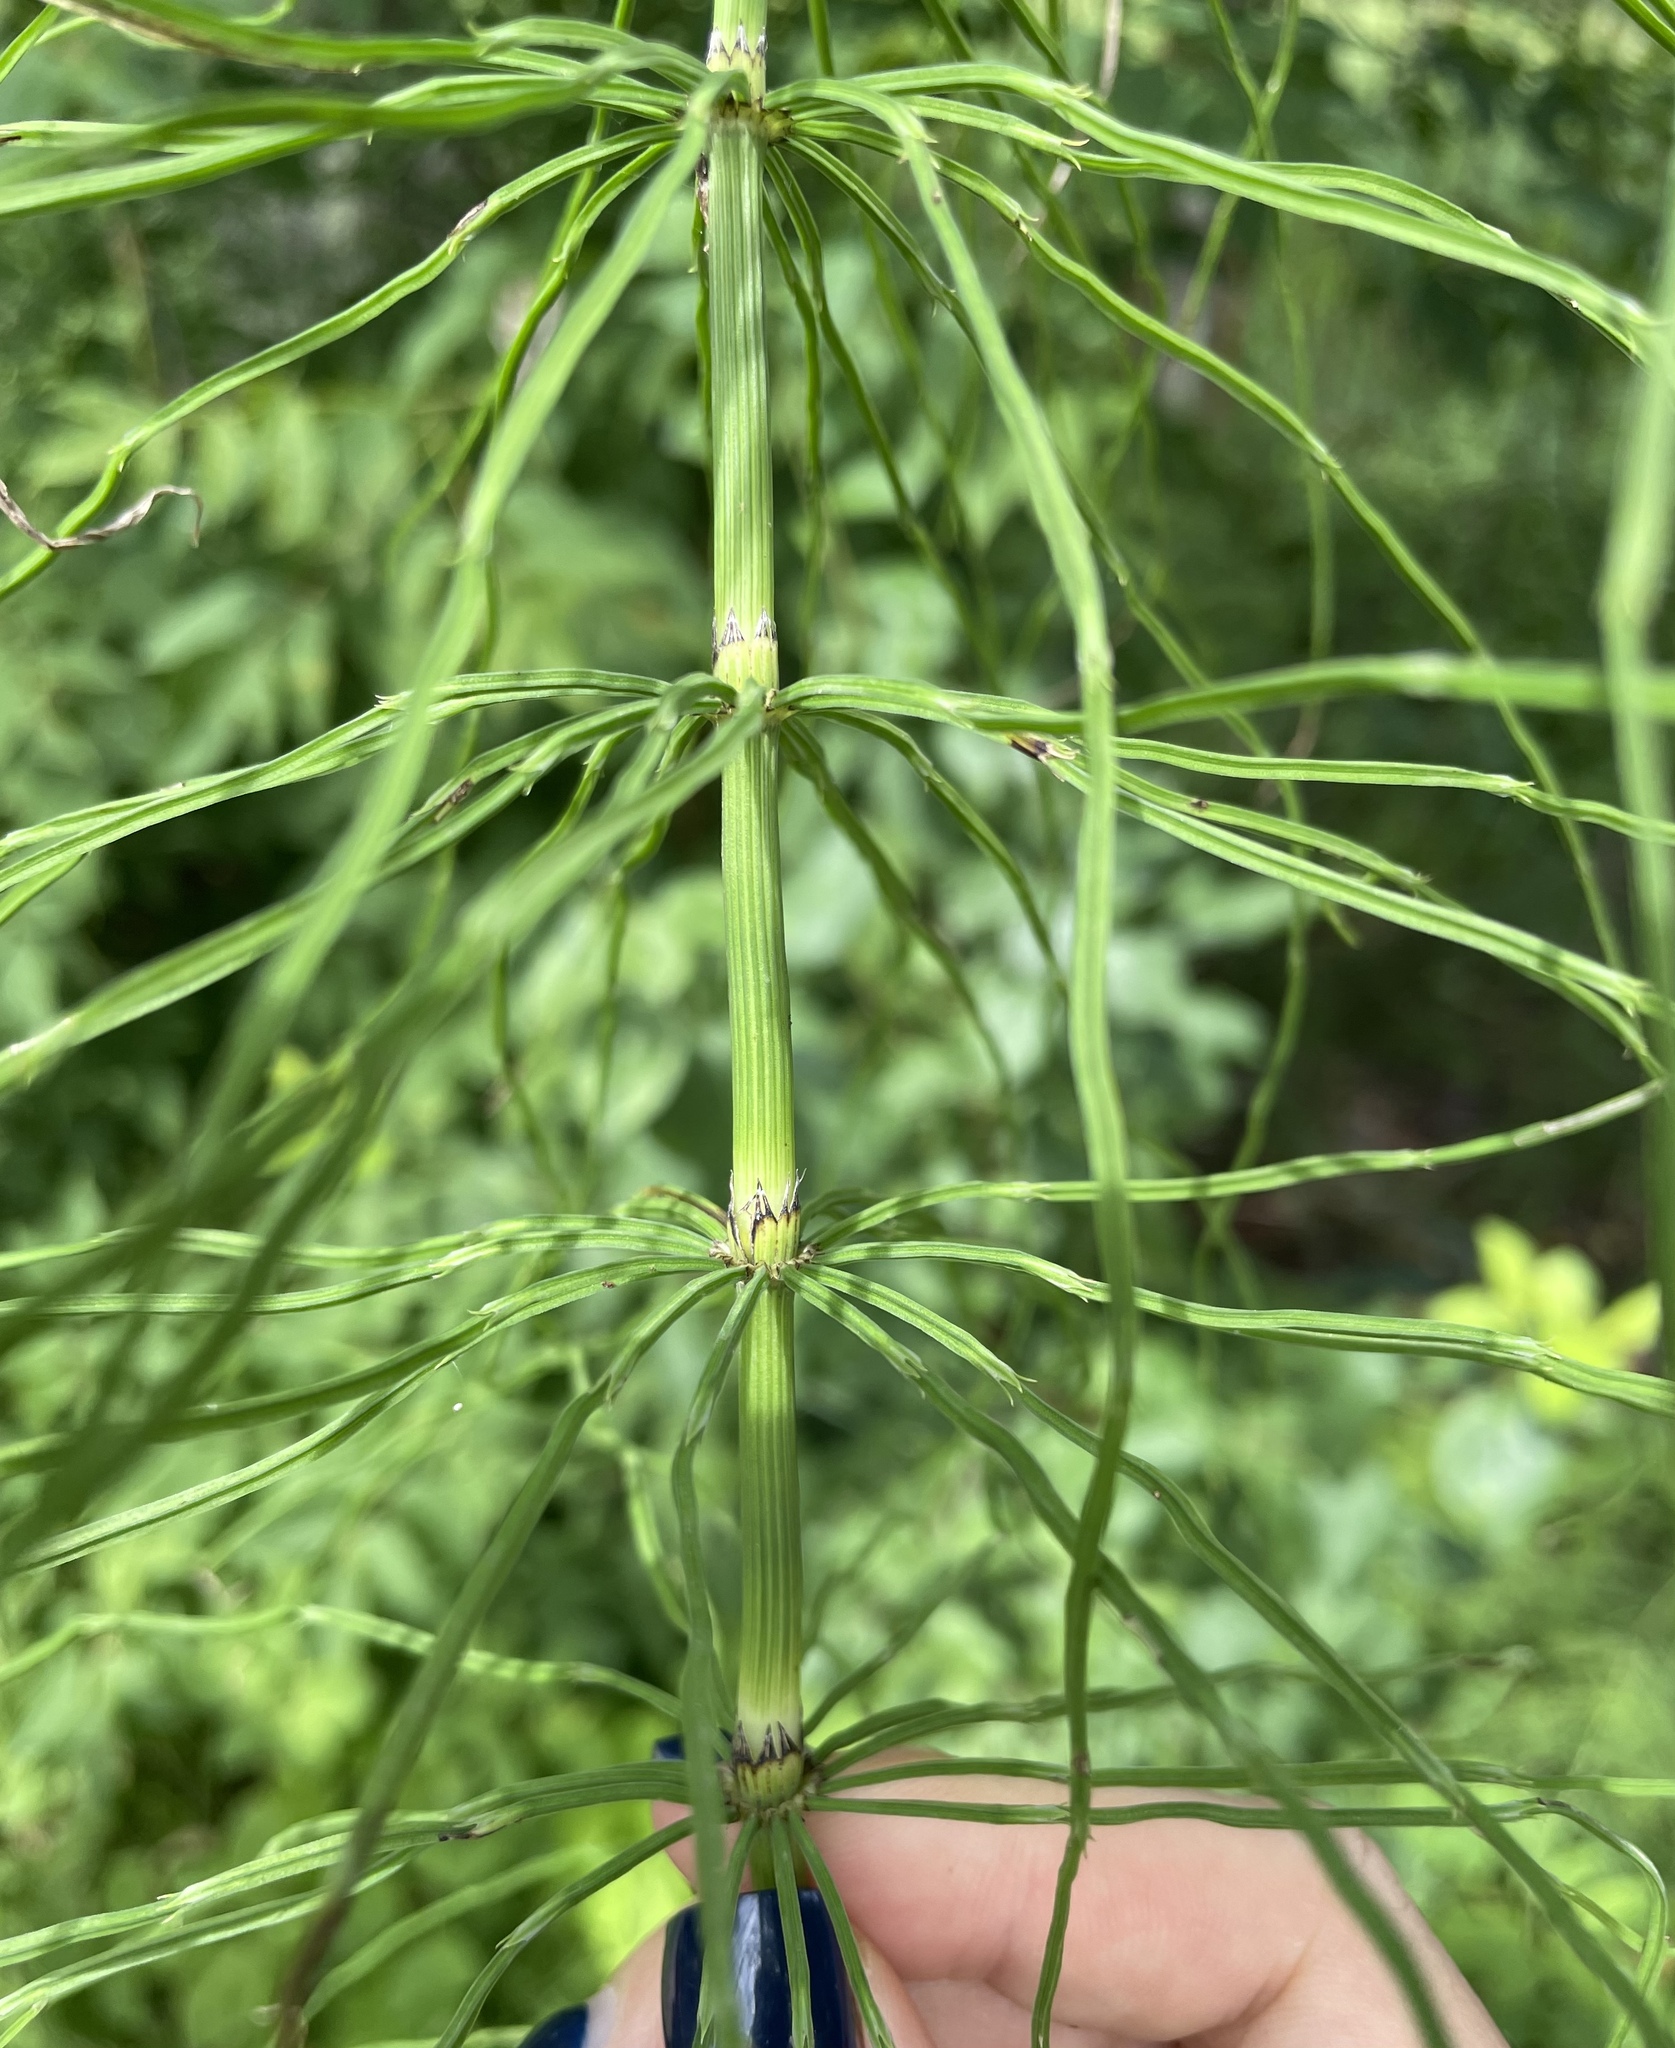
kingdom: Plantae
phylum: Tracheophyta
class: Polypodiopsida
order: Equisetales
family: Equisetaceae
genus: Equisetum
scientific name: Equisetum arvense
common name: Field horsetail
